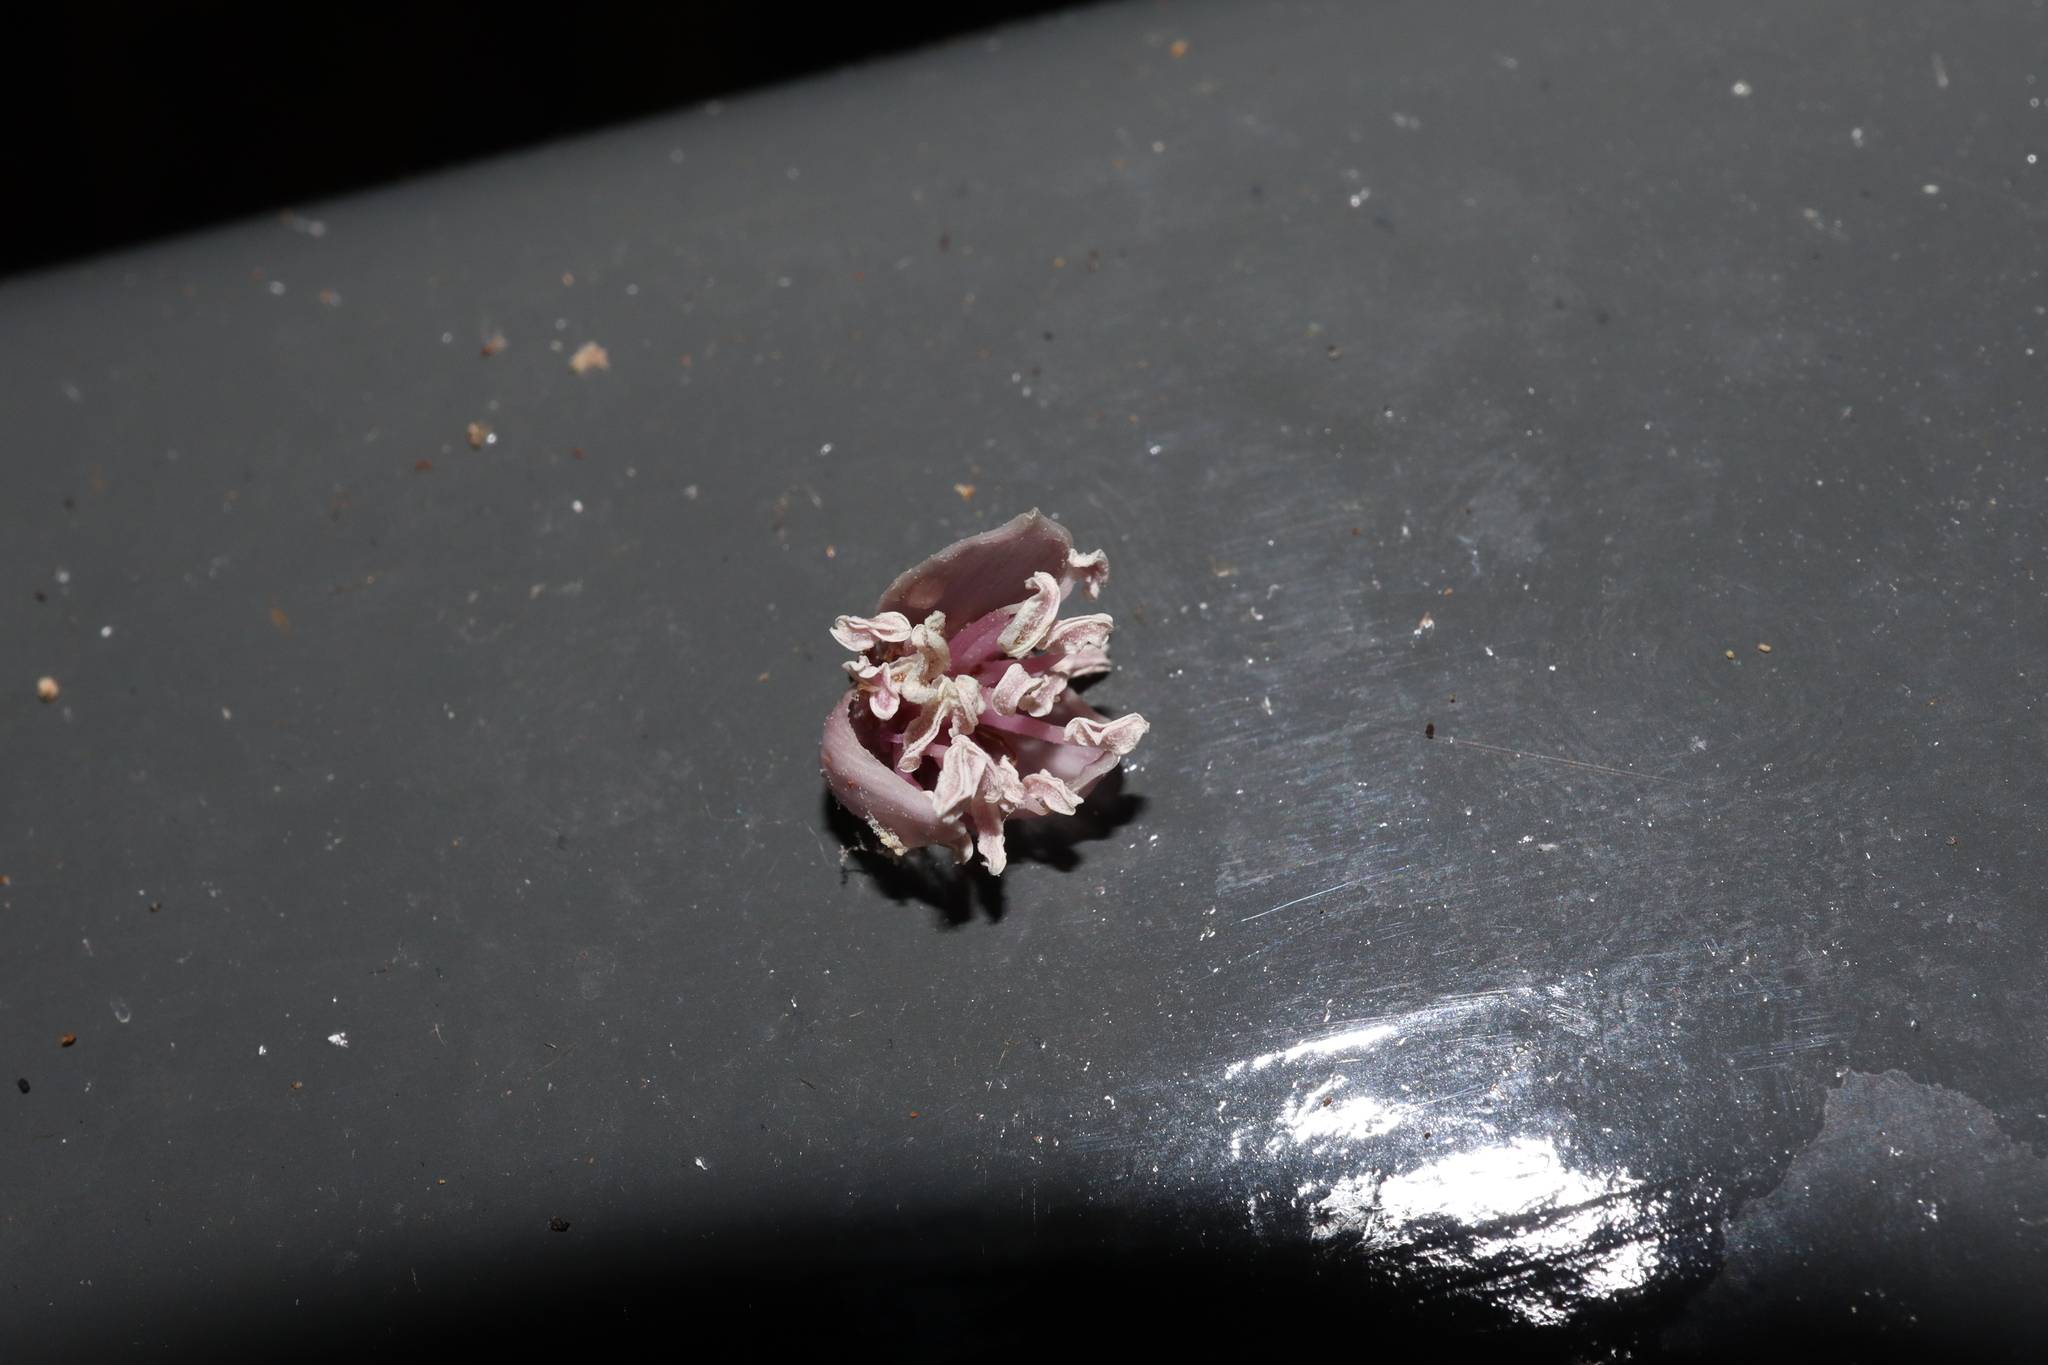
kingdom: Plantae
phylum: Tracheophyta
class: Liliopsida
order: Arecales
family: Arecaceae
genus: Archontophoenix
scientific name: Archontophoenix cunninghamiana
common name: Piccabeen bangalow palm
